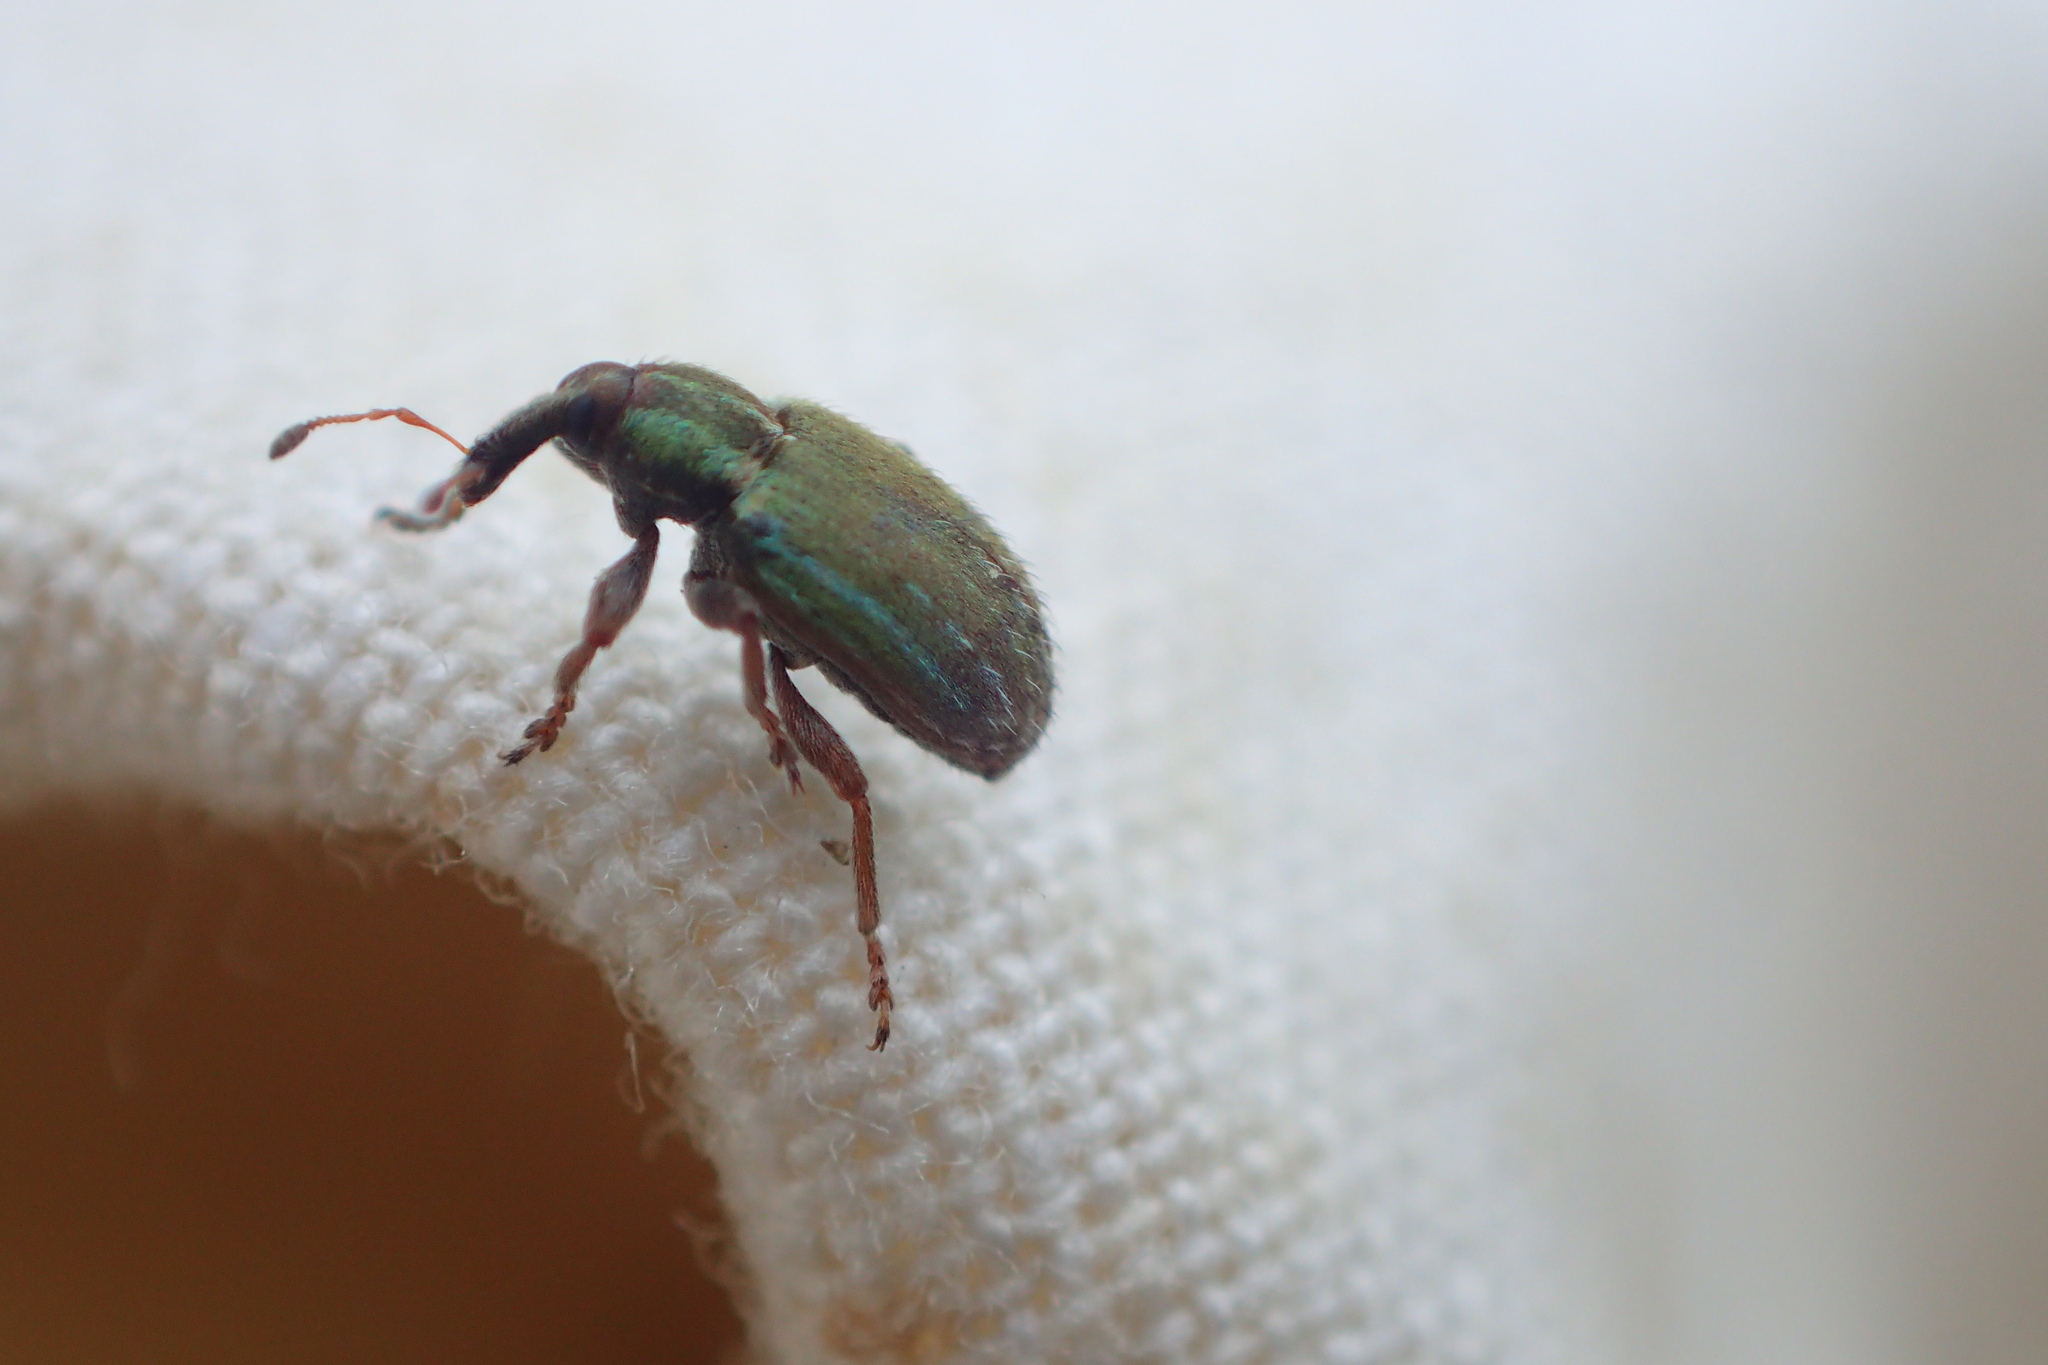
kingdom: Animalia
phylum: Arthropoda
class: Insecta
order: Coleoptera
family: Curculionidae
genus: Hypera
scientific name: Hypera nigrirostris
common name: Black-beaked green weevil
